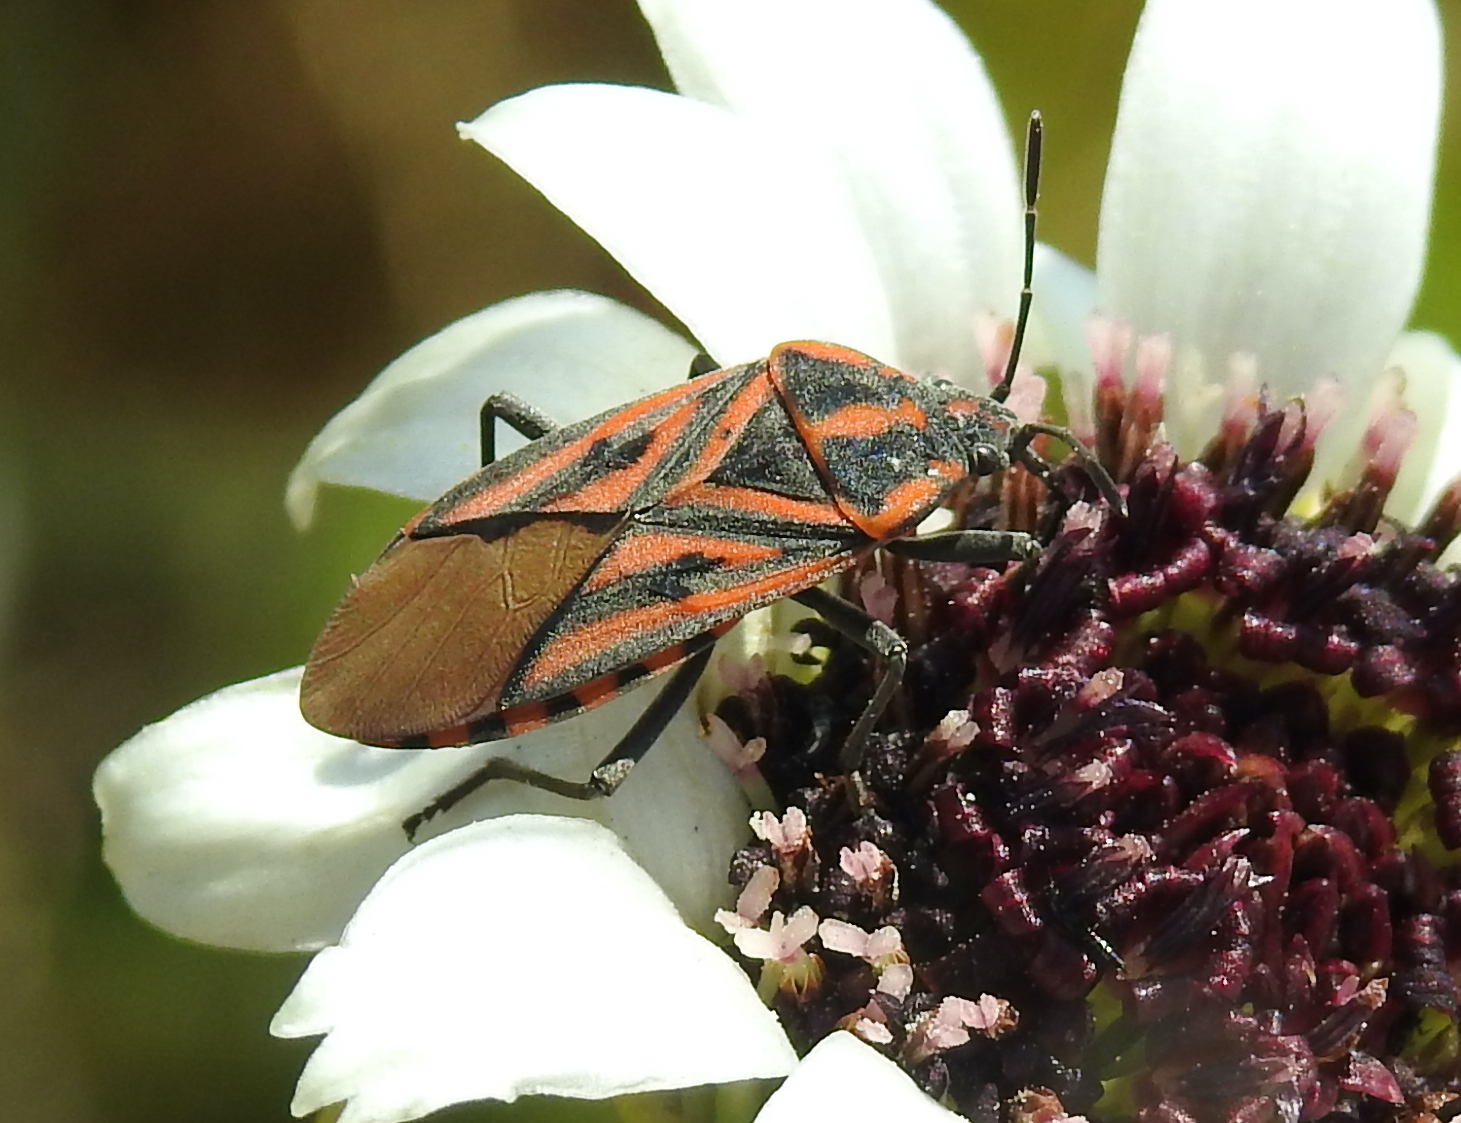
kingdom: Animalia
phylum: Arthropoda
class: Insecta
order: Hemiptera
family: Lygaeidae
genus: Spilostethus
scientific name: Spilostethus rivularis
